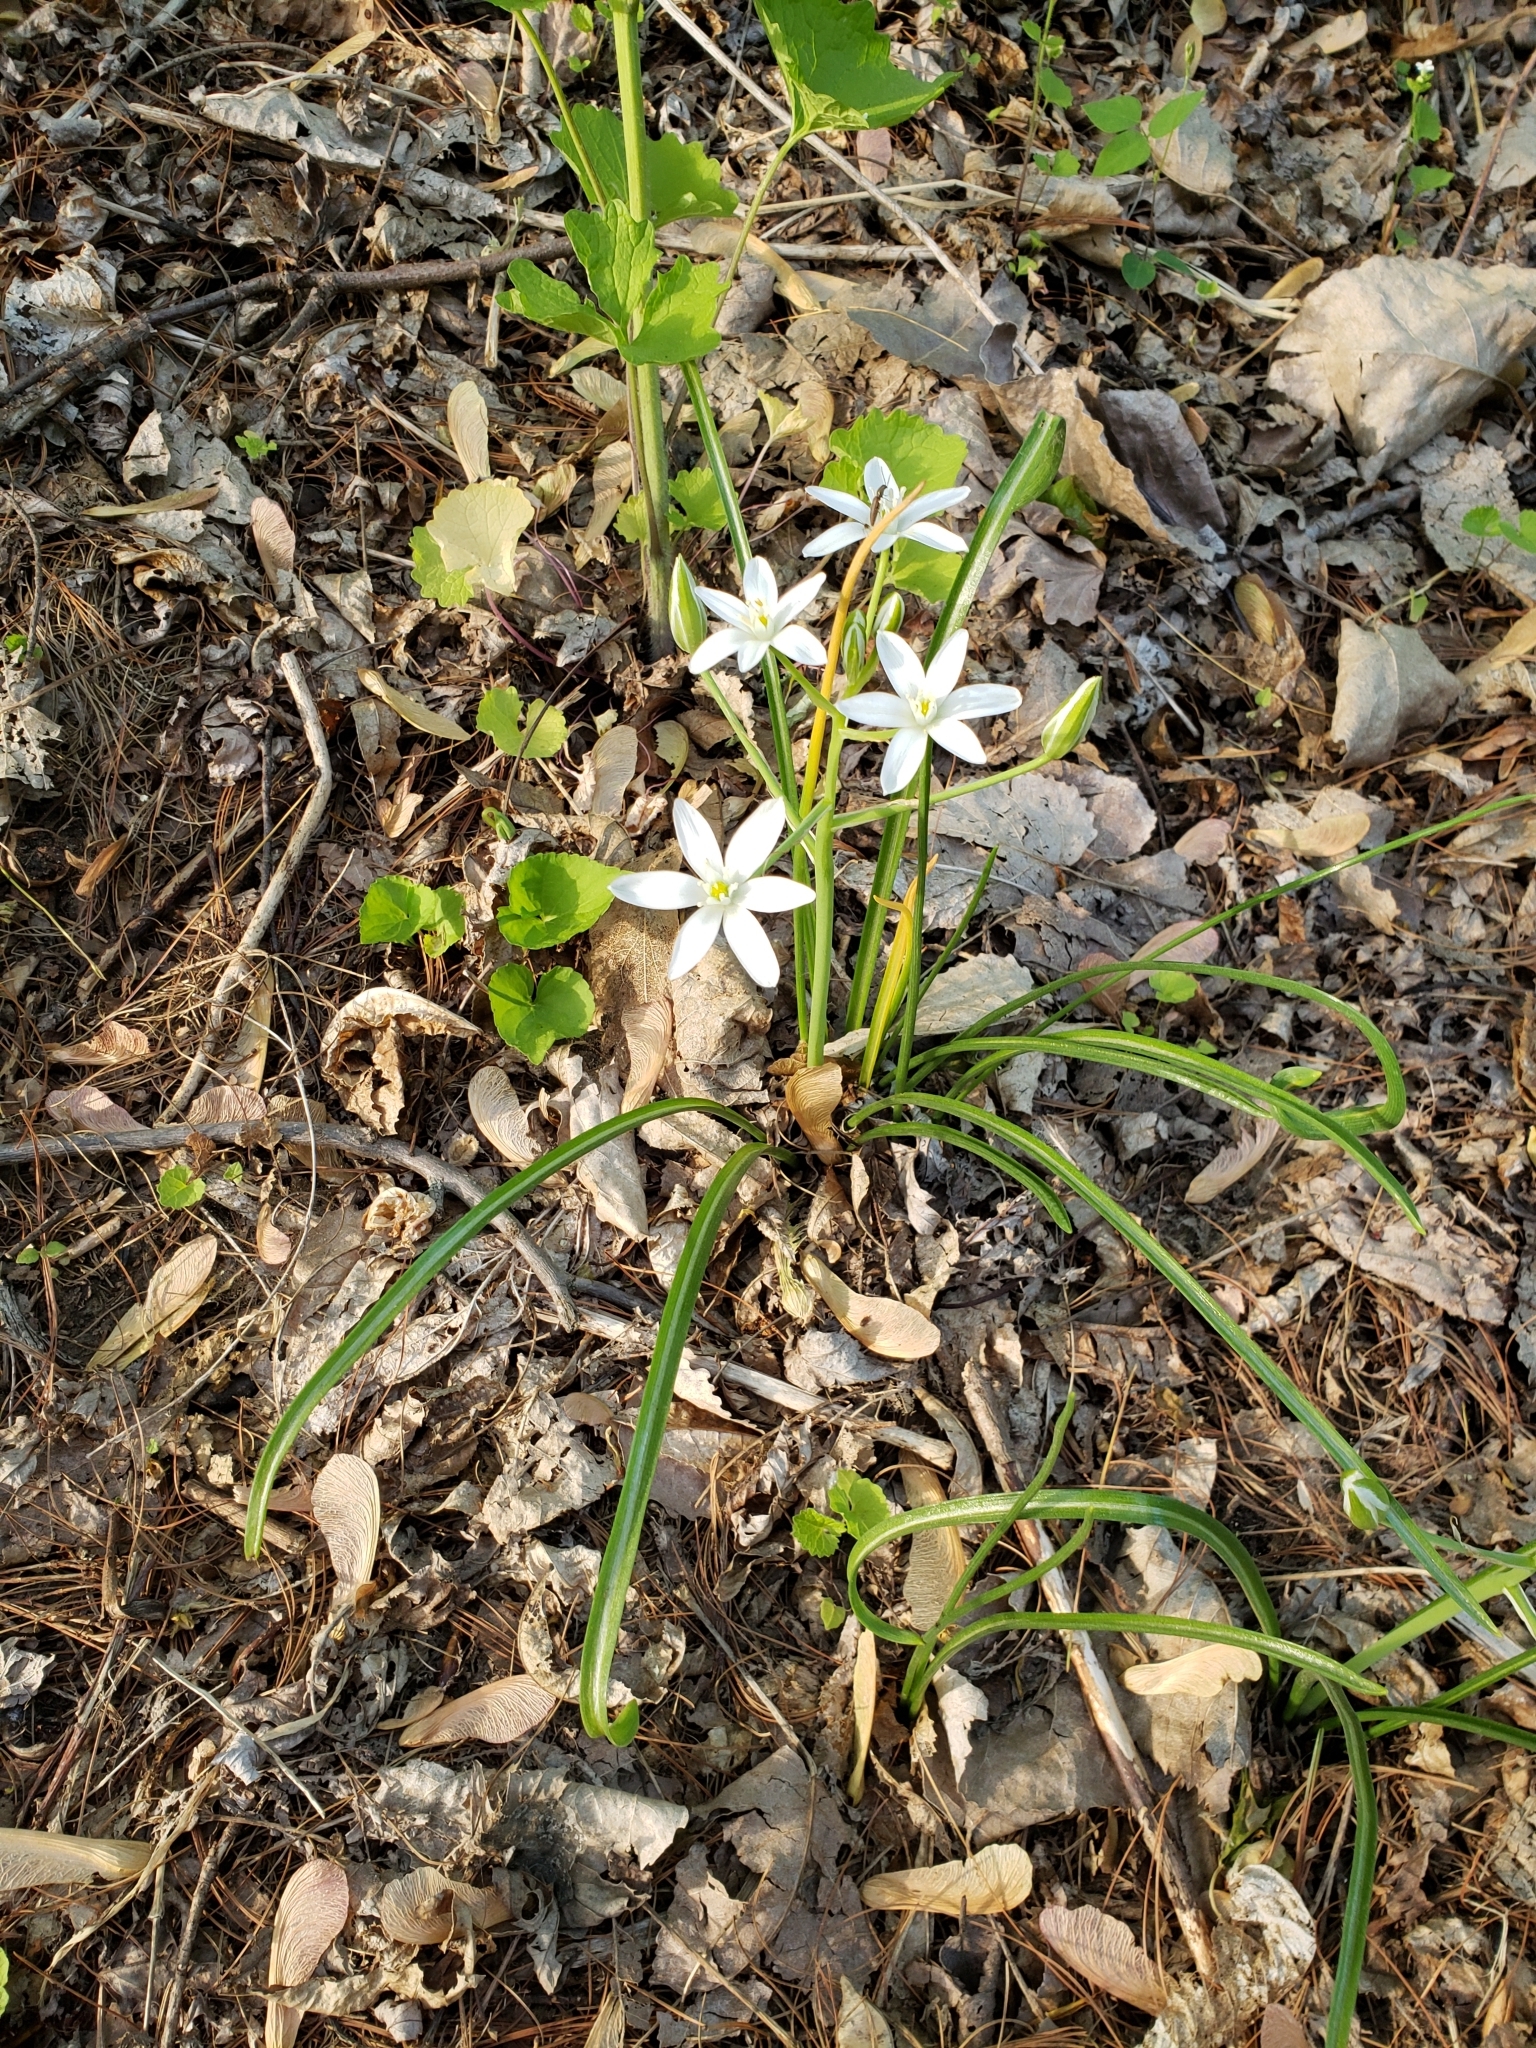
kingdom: Plantae
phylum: Tracheophyta
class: Liliopsida
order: Asparagales
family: Asparagaceae
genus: Ornithogalum
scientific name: Ornithogalum umbellatum
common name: Garden star-of-bethlehem
